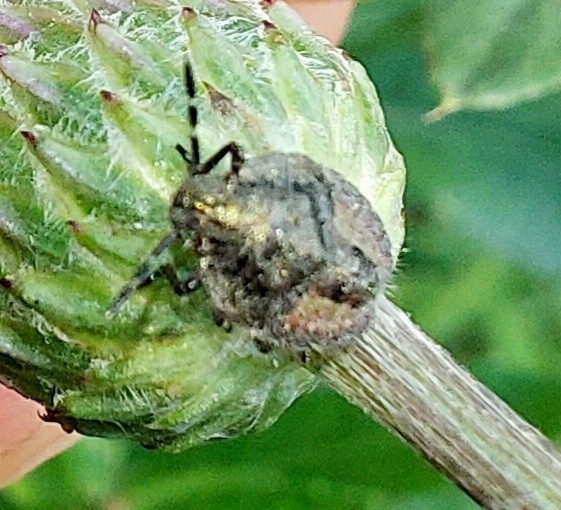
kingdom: Animalia
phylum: Arthropoda
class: Insecta
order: Hemiptera
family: Pentatomidae
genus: Dolycoris
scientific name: Dolycoris baccarum
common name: Sloe bug
